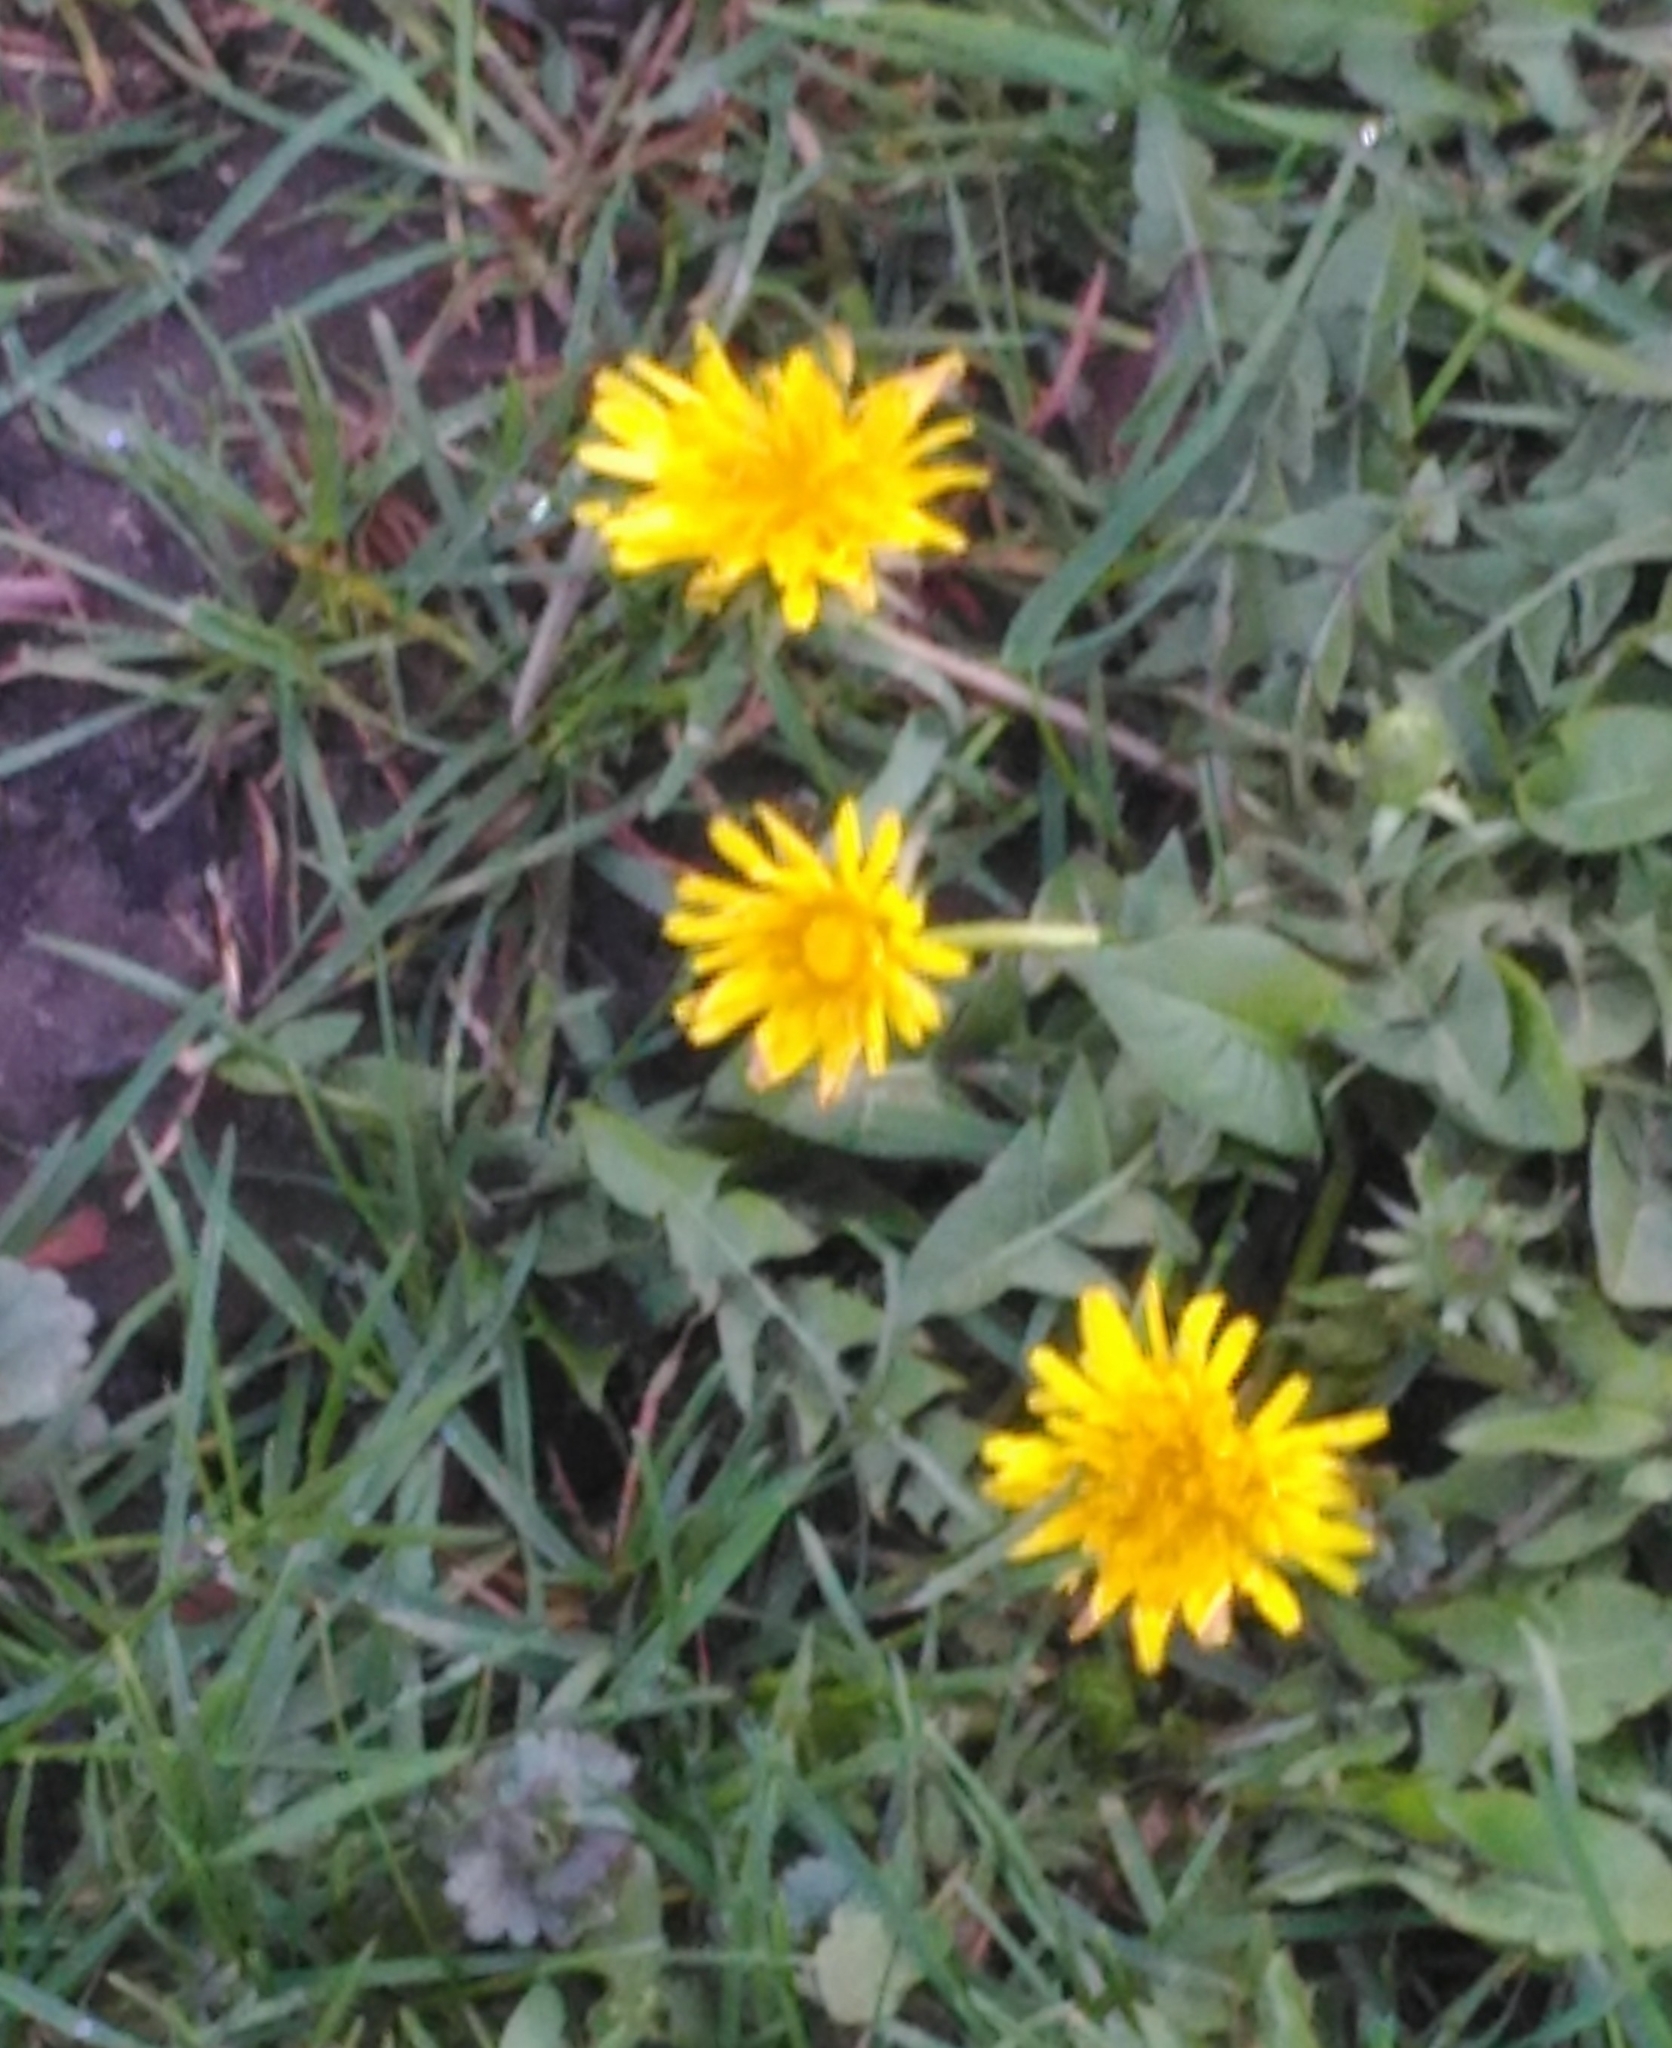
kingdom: Plantae
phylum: Tracheophyta
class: Magnoliopsida
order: Asterales
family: Asteraceae
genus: Taraxacum
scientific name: Taraxacum officinale
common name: Common dandelion
